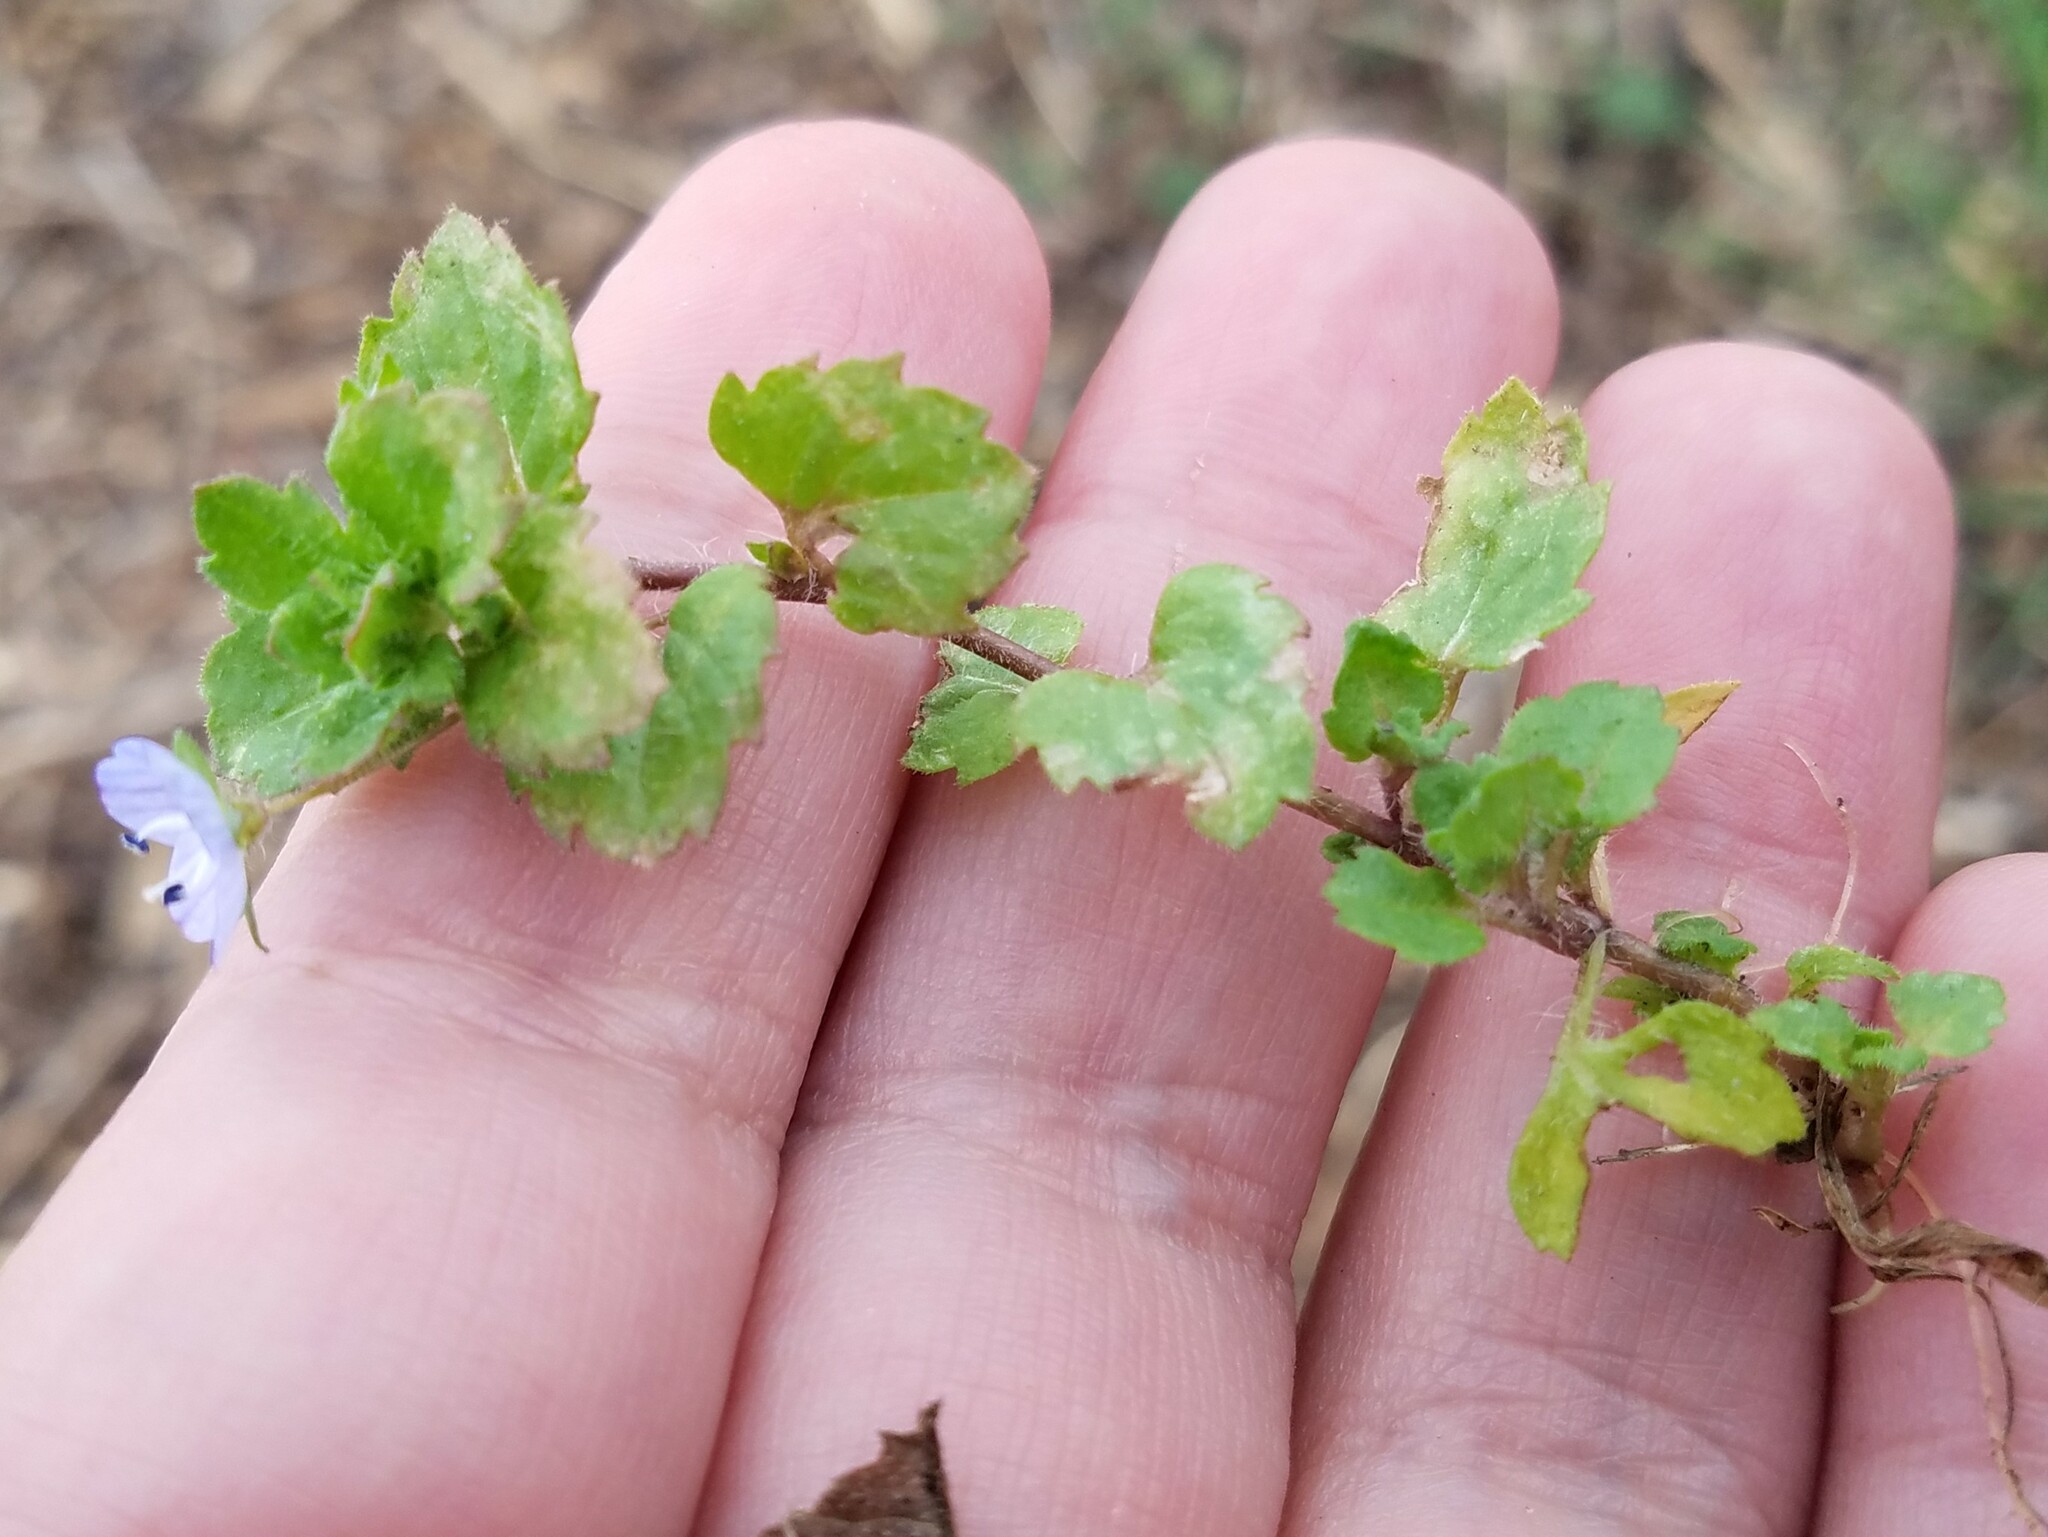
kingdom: Plantae
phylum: Tracheophyta
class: Magnoliopsida
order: Lamiales
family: Plantaginaceae
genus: Veronica
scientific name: Veronica persica
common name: Common field-speedwell
